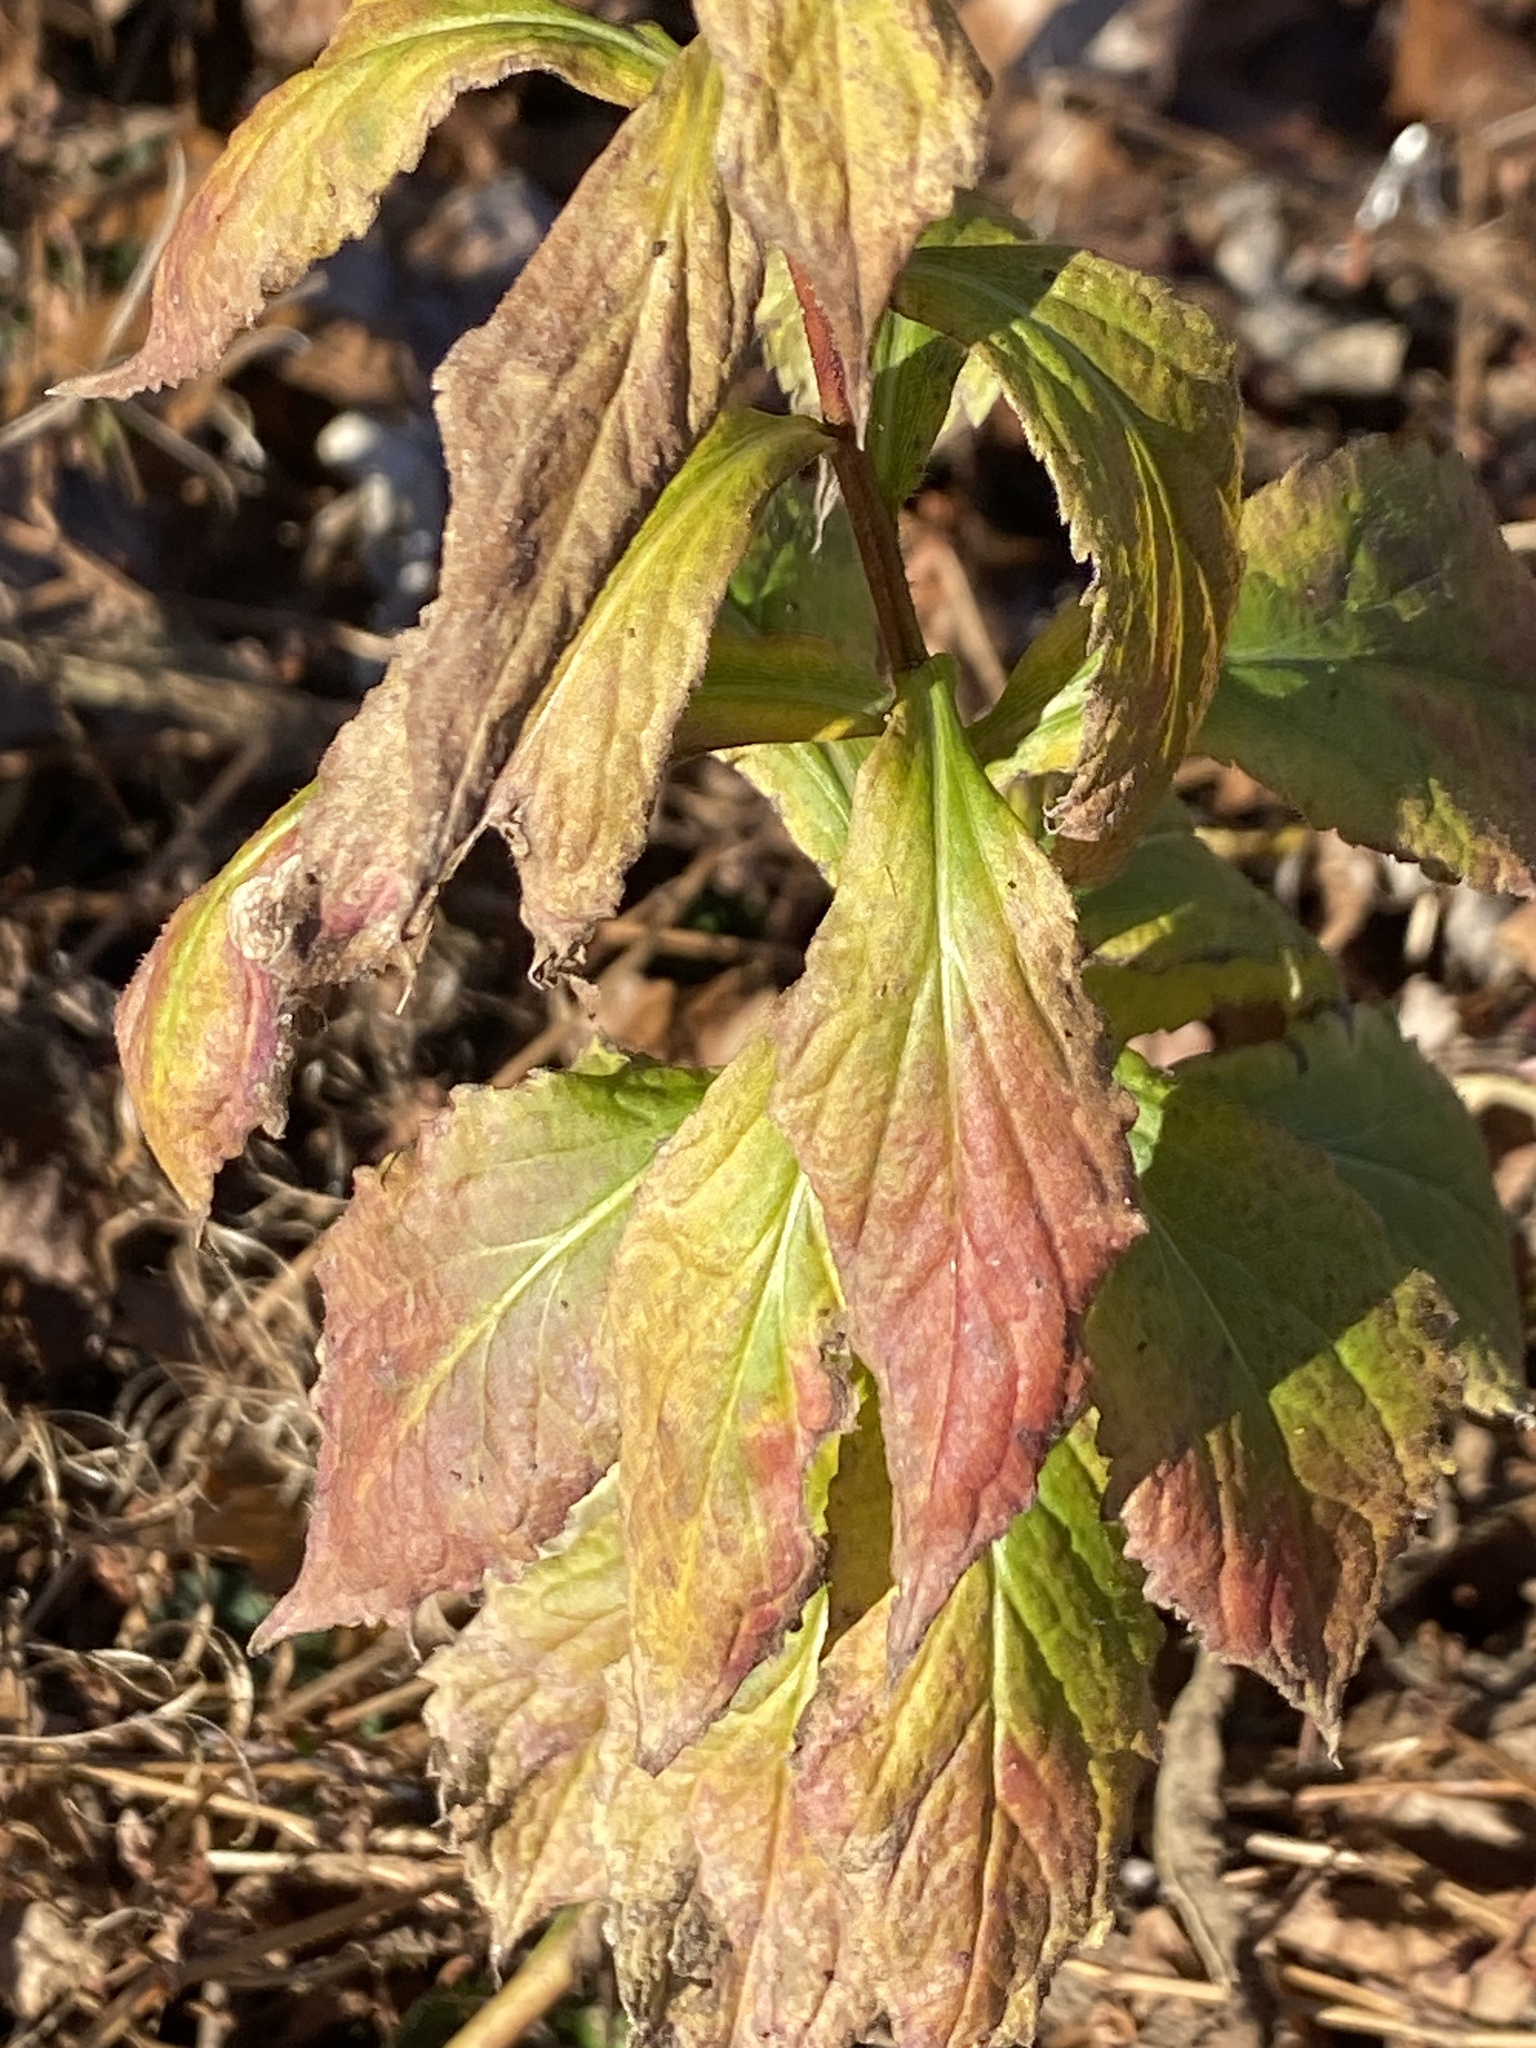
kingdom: Plantae
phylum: Tracheophyta
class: Magnoliopsida
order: Asterales
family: Asteraceae
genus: Solidago
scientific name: Solidago rugosa
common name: Rough-stemmed goldenrod
